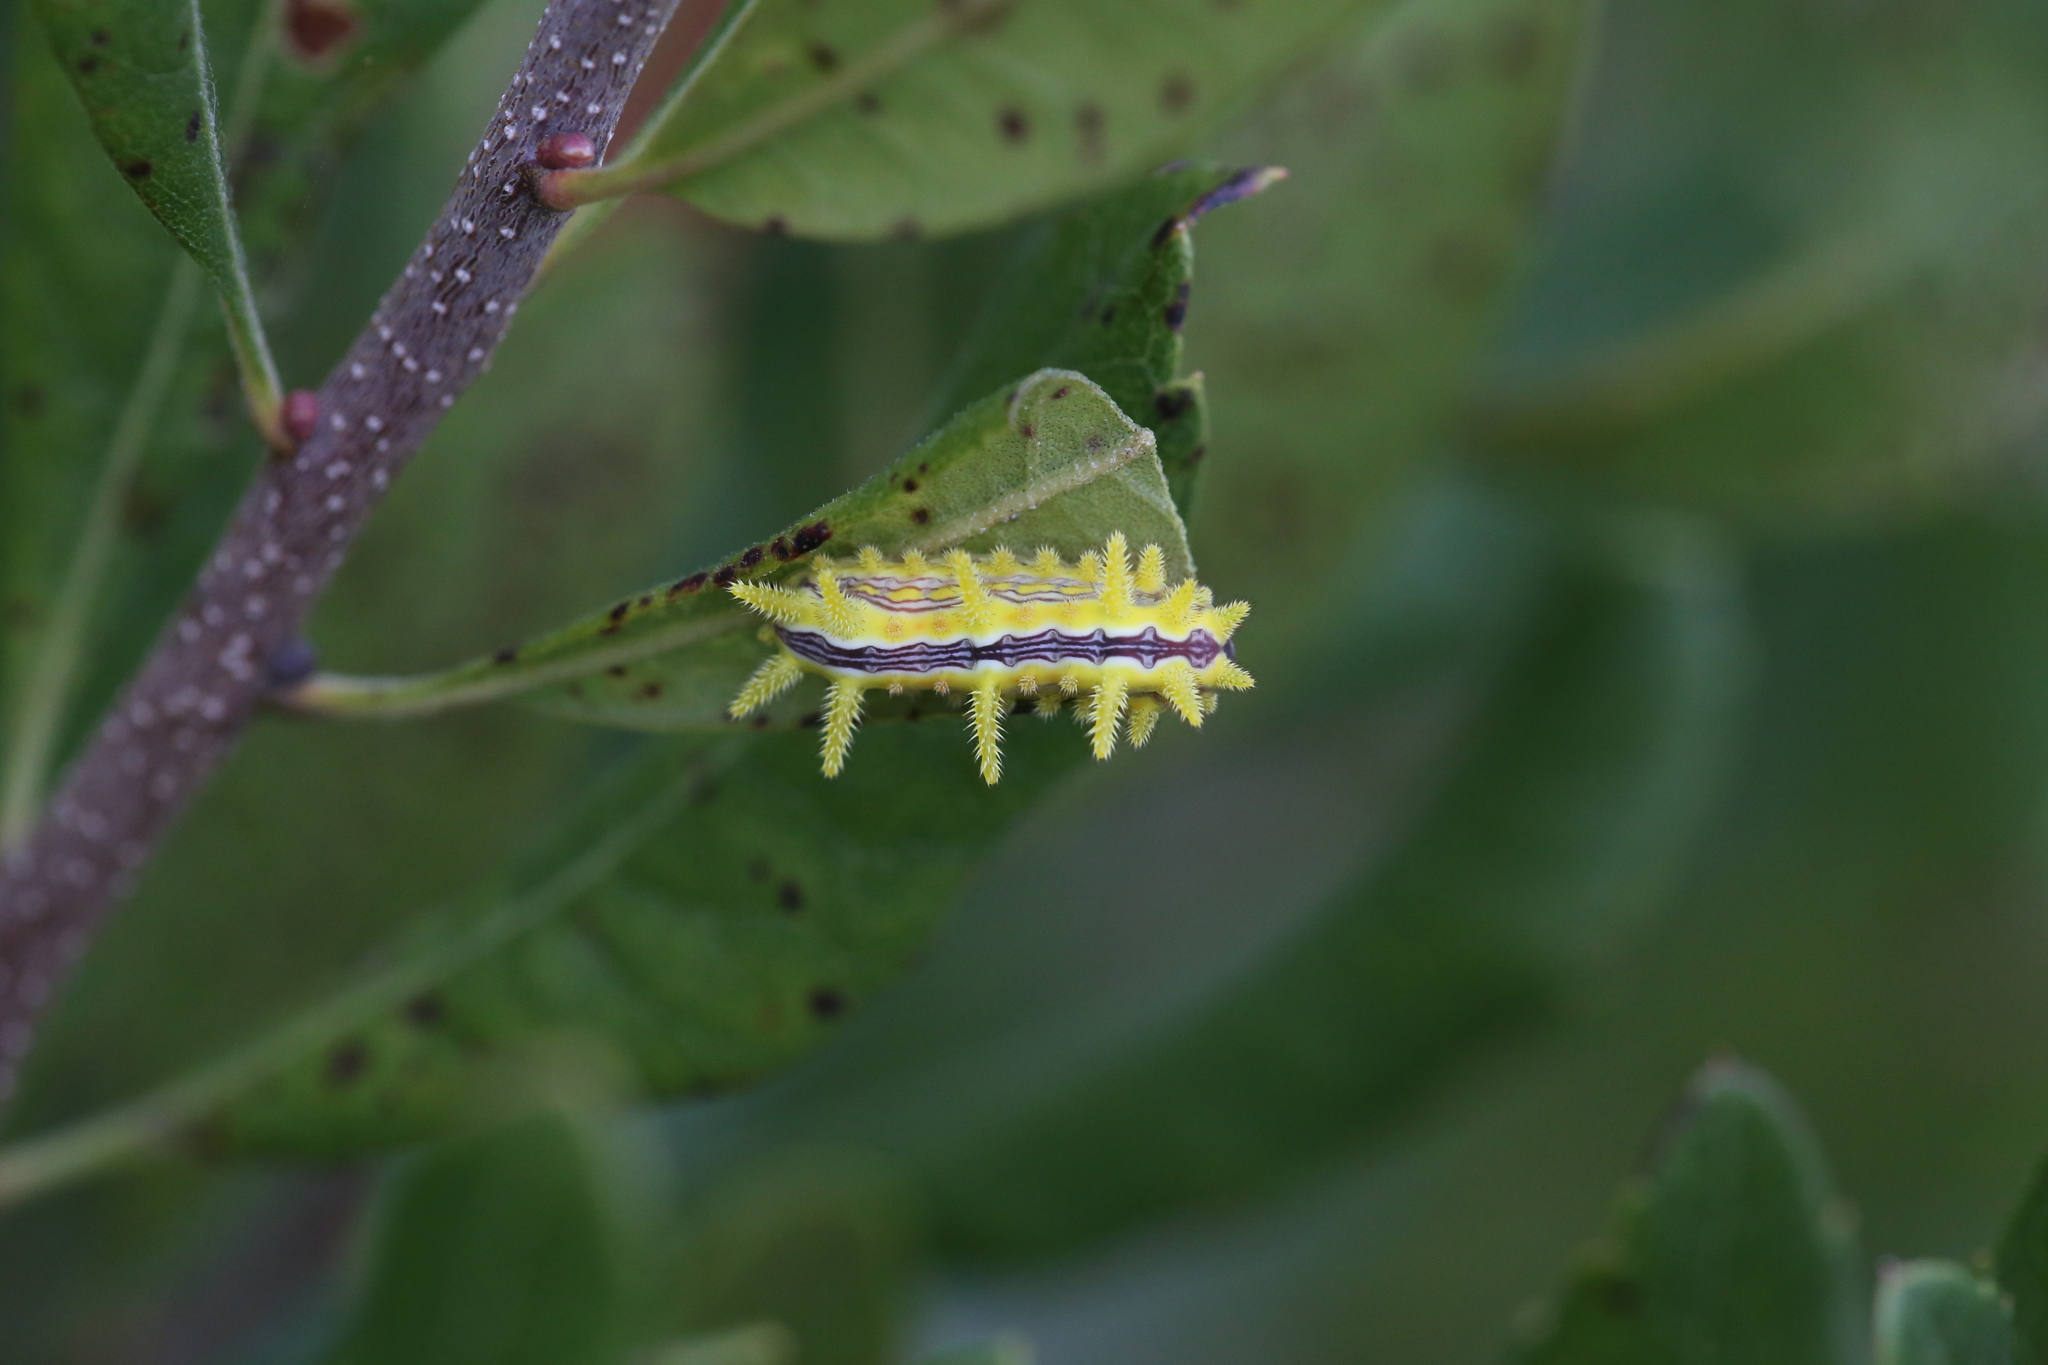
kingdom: Animalia
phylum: Arthropoda
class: Insecta
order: Lepidoptera
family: Limacodidae
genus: Parasa
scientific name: Parasa indetermina
